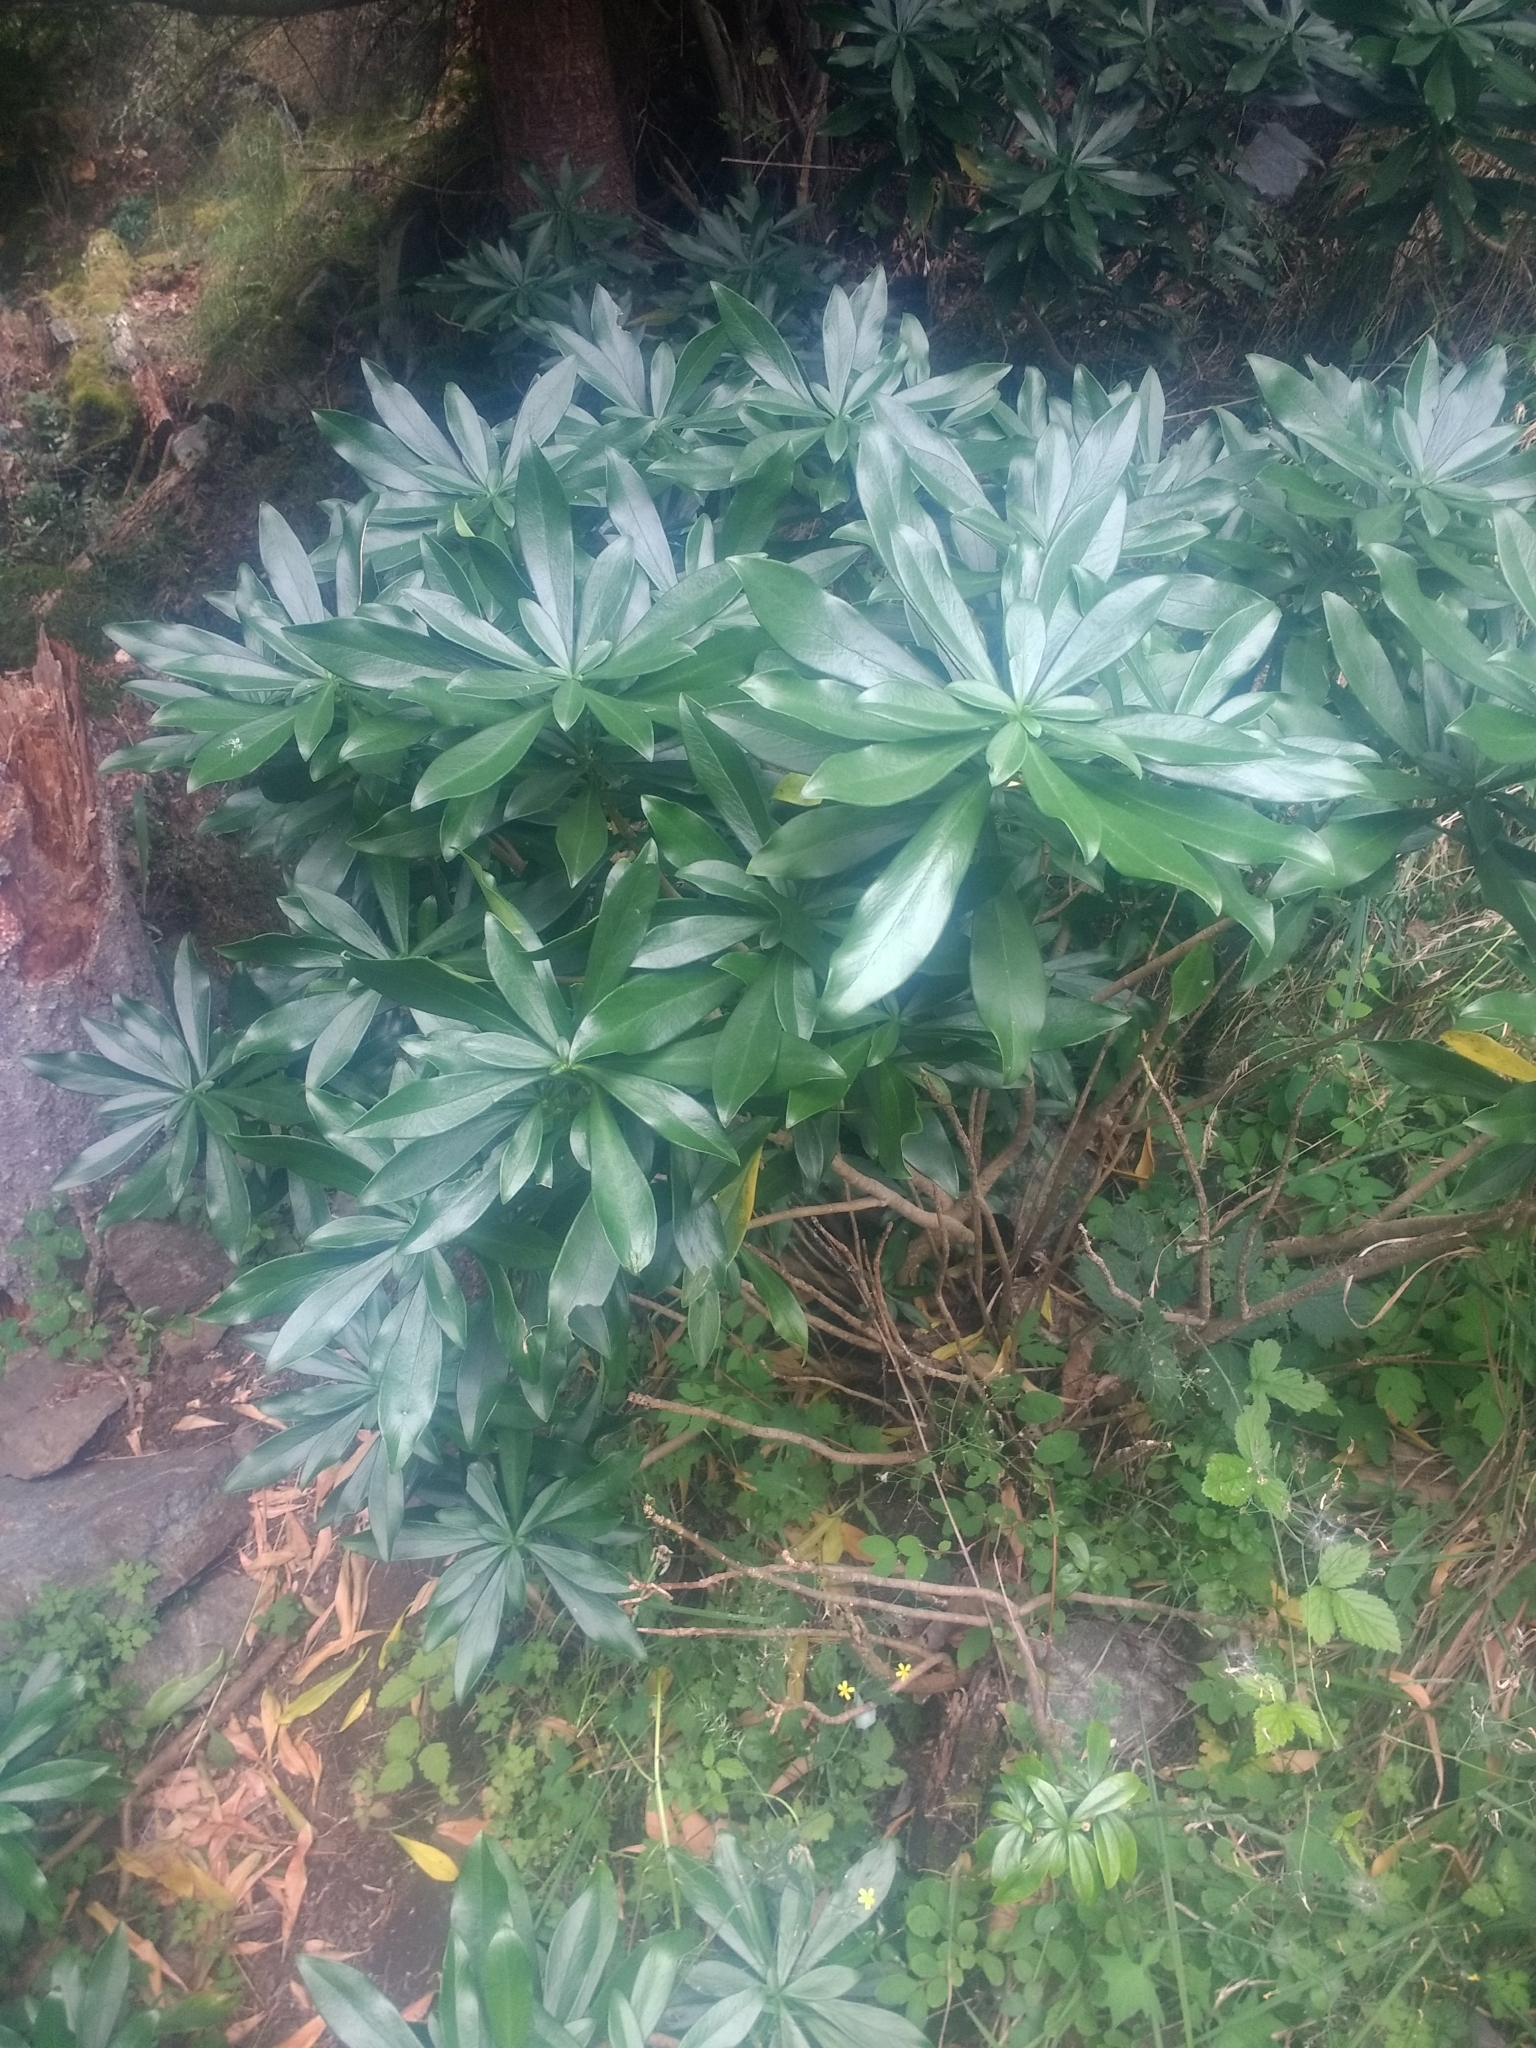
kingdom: Plantae
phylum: Tracheophyta
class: Magnoliopsida
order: Malvales
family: Thymelaeaceae
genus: Daphne
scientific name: Daphne laureola
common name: Spurge-laurel
